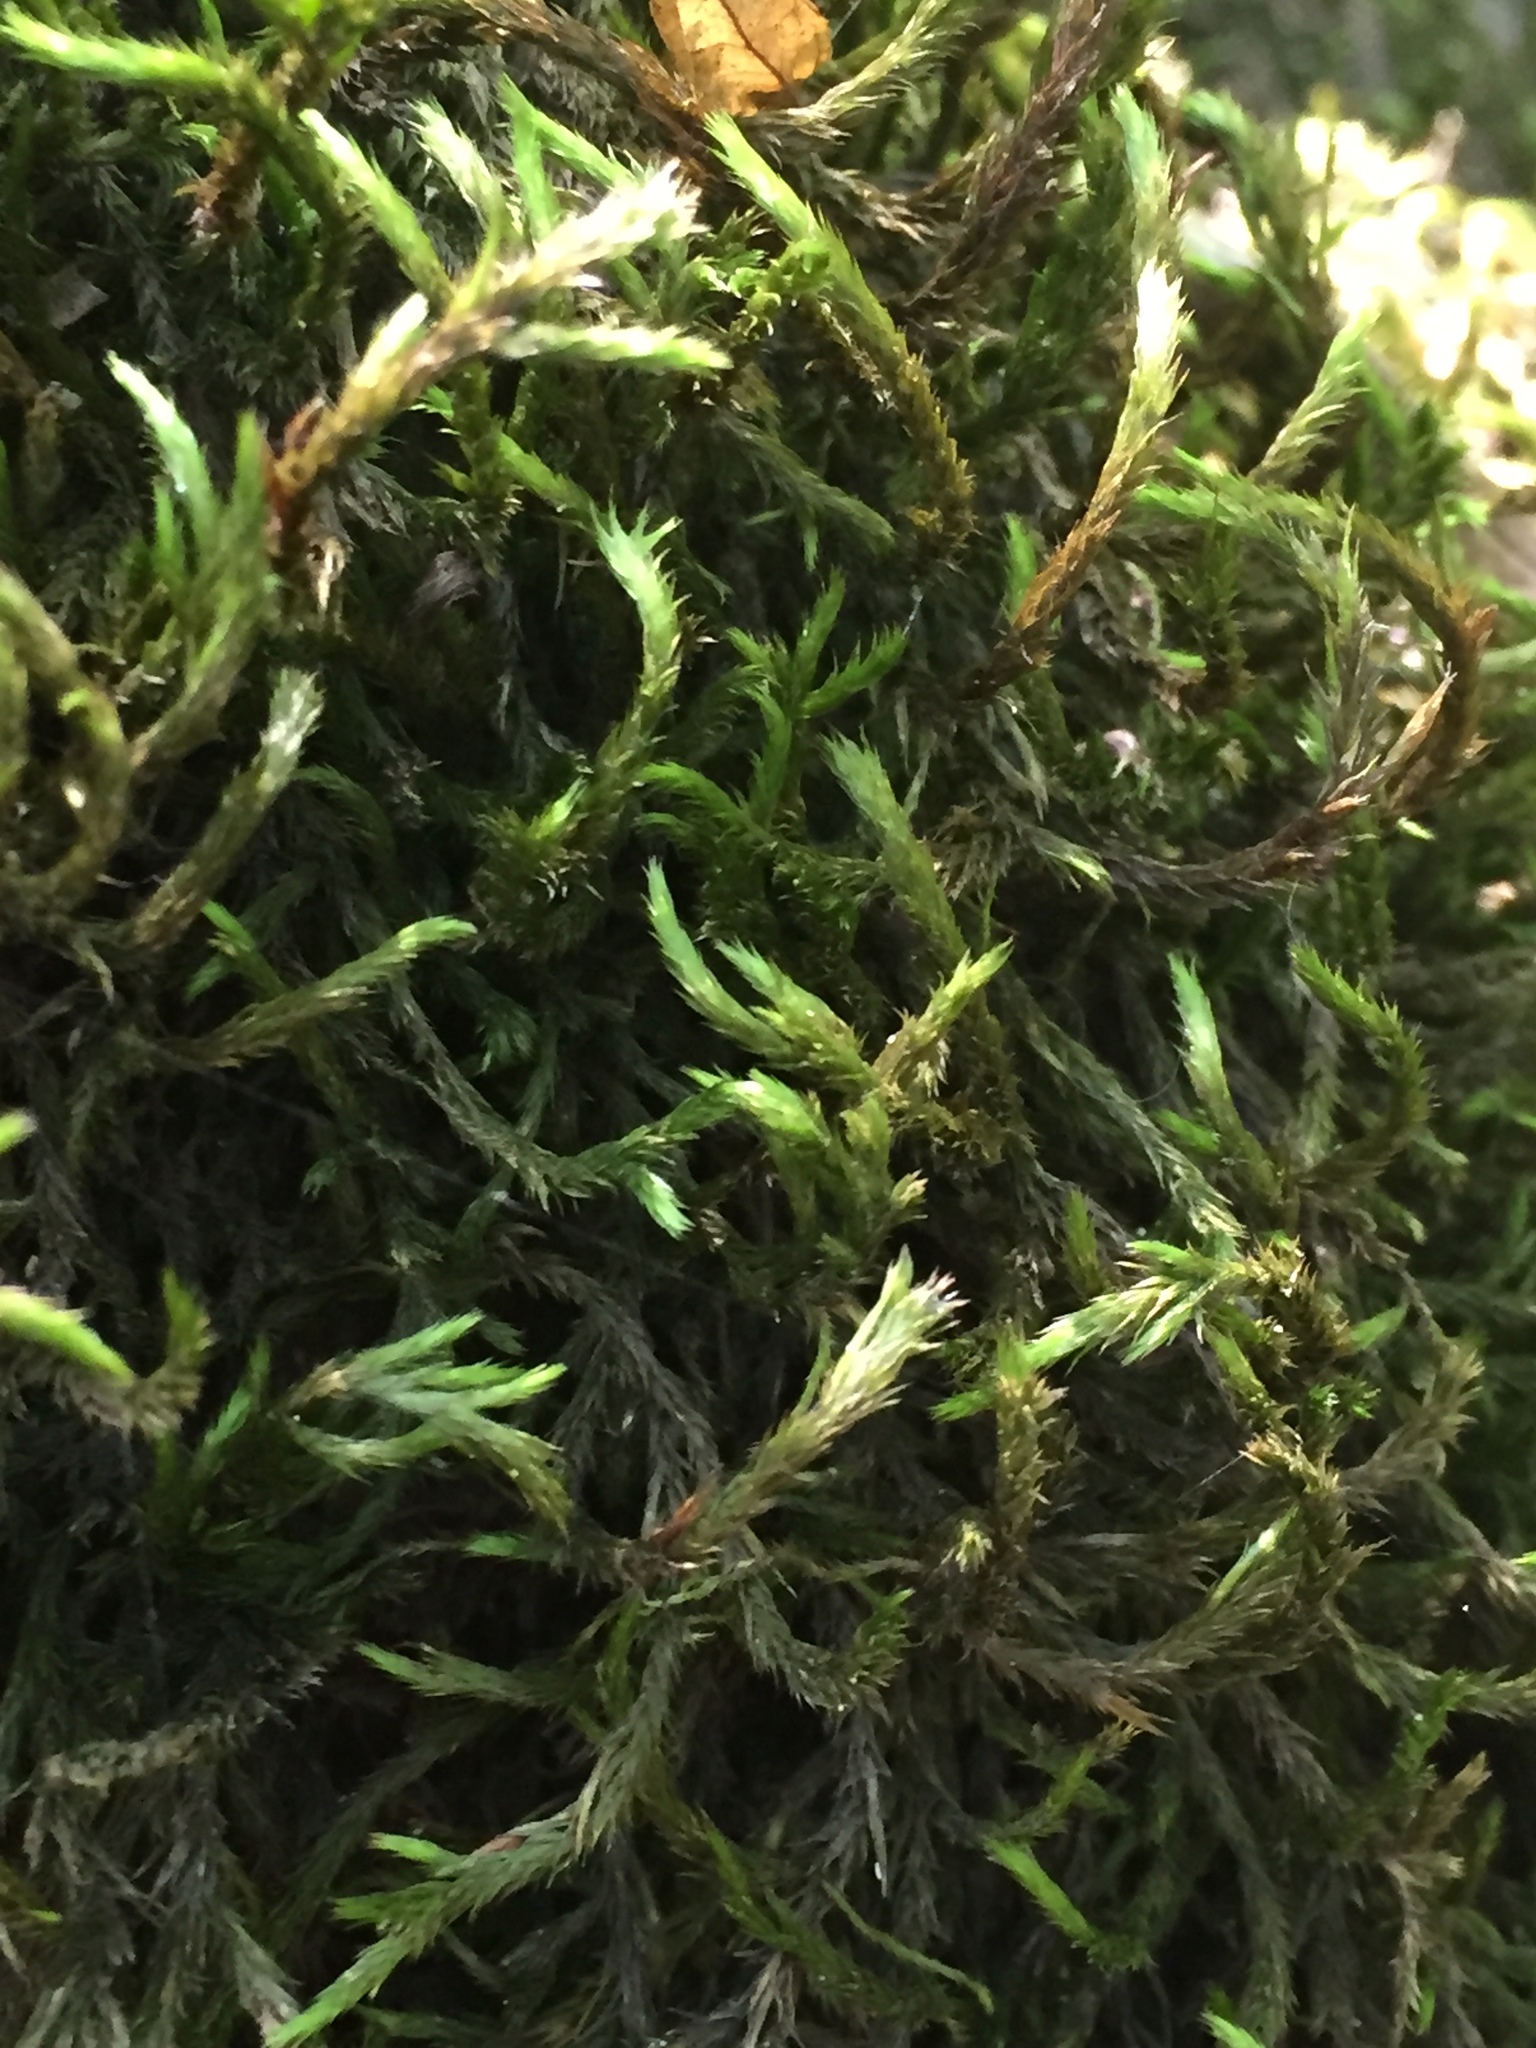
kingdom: Plantae
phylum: Bryophyta
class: Bryopsida
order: Hypnales
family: Leucodontaceae
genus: Leucodon
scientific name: Leucodon sciuroides
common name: Squirrel-tail moss
